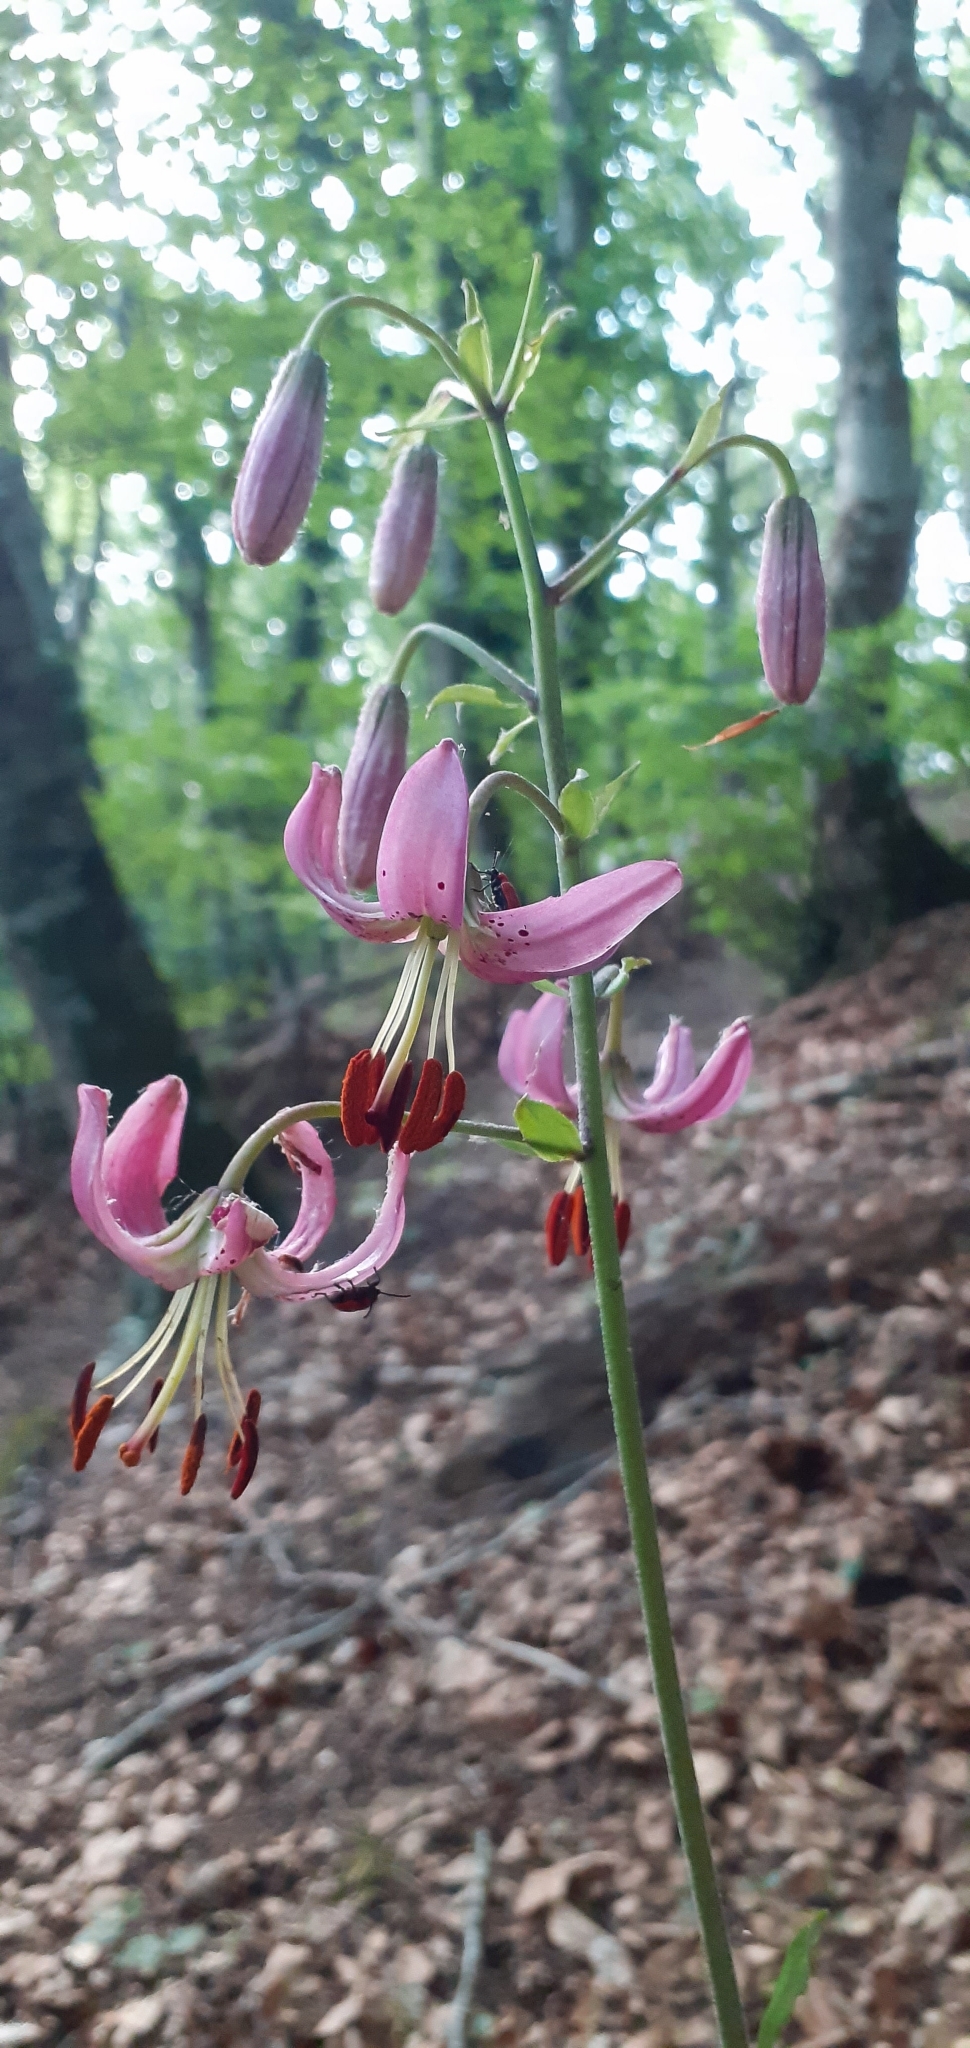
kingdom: Plantae
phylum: Tracheophyta
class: Liliopsida
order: Liliales
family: Liliaceae
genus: Lilium
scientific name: Lilium martagon
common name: Martagon lily
